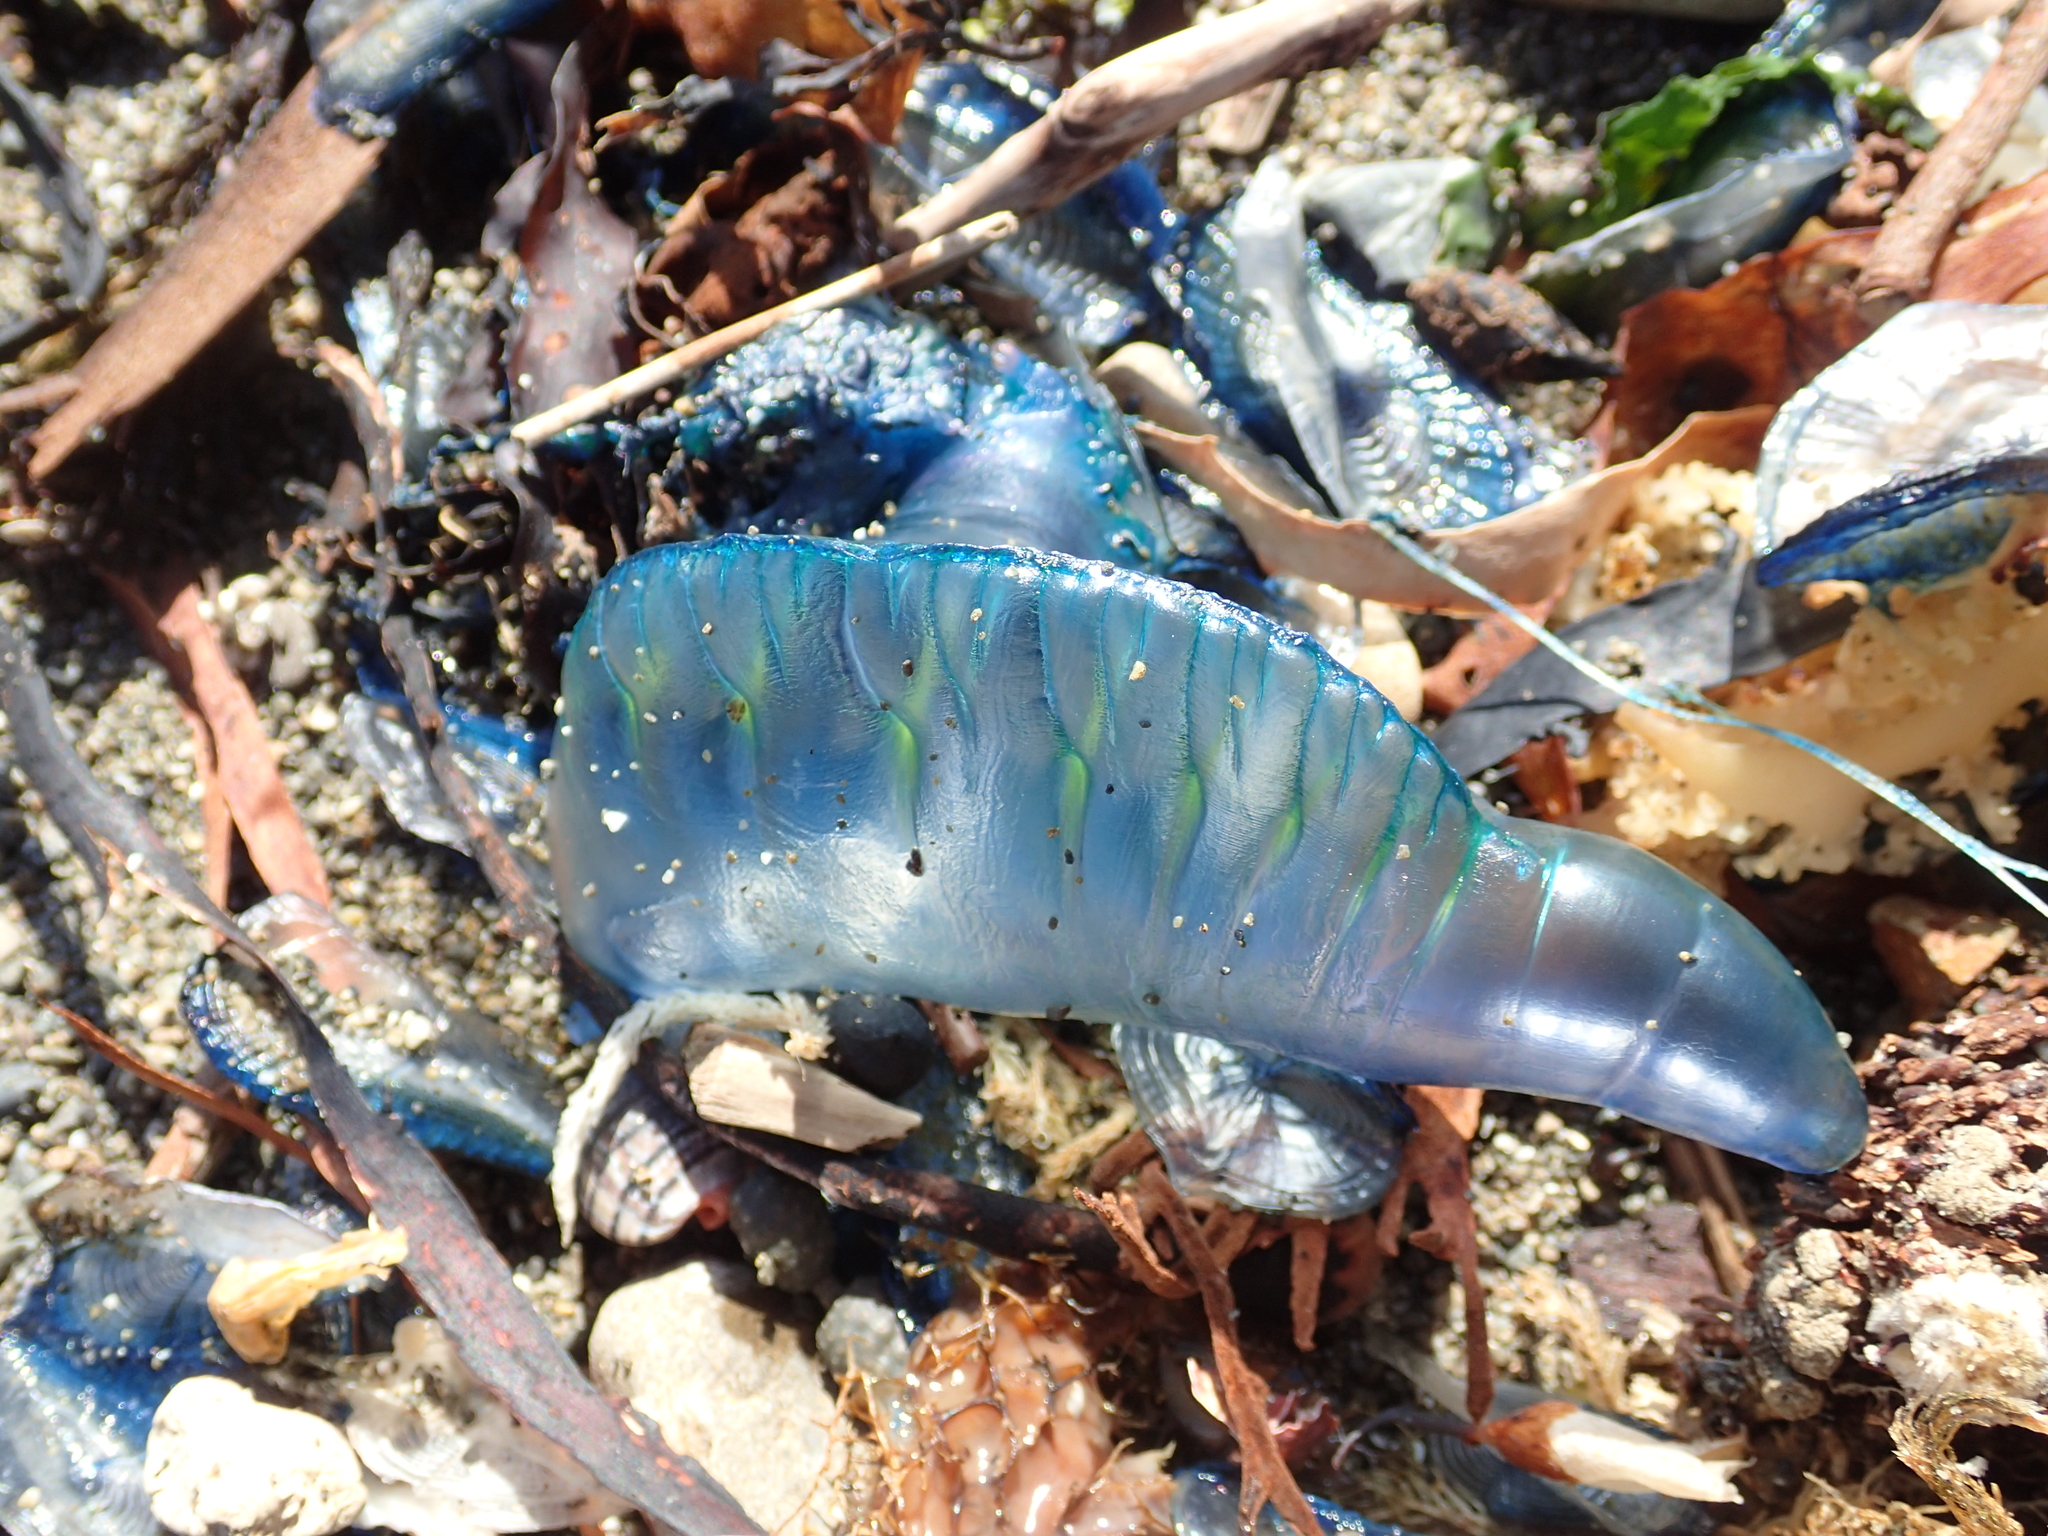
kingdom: Animalia
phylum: Cnidaria
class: Hydrozoa
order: Siphonophorae
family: Physaliidae
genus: Physalia
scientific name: Physalia physalis
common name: Portuguese man-of-war
